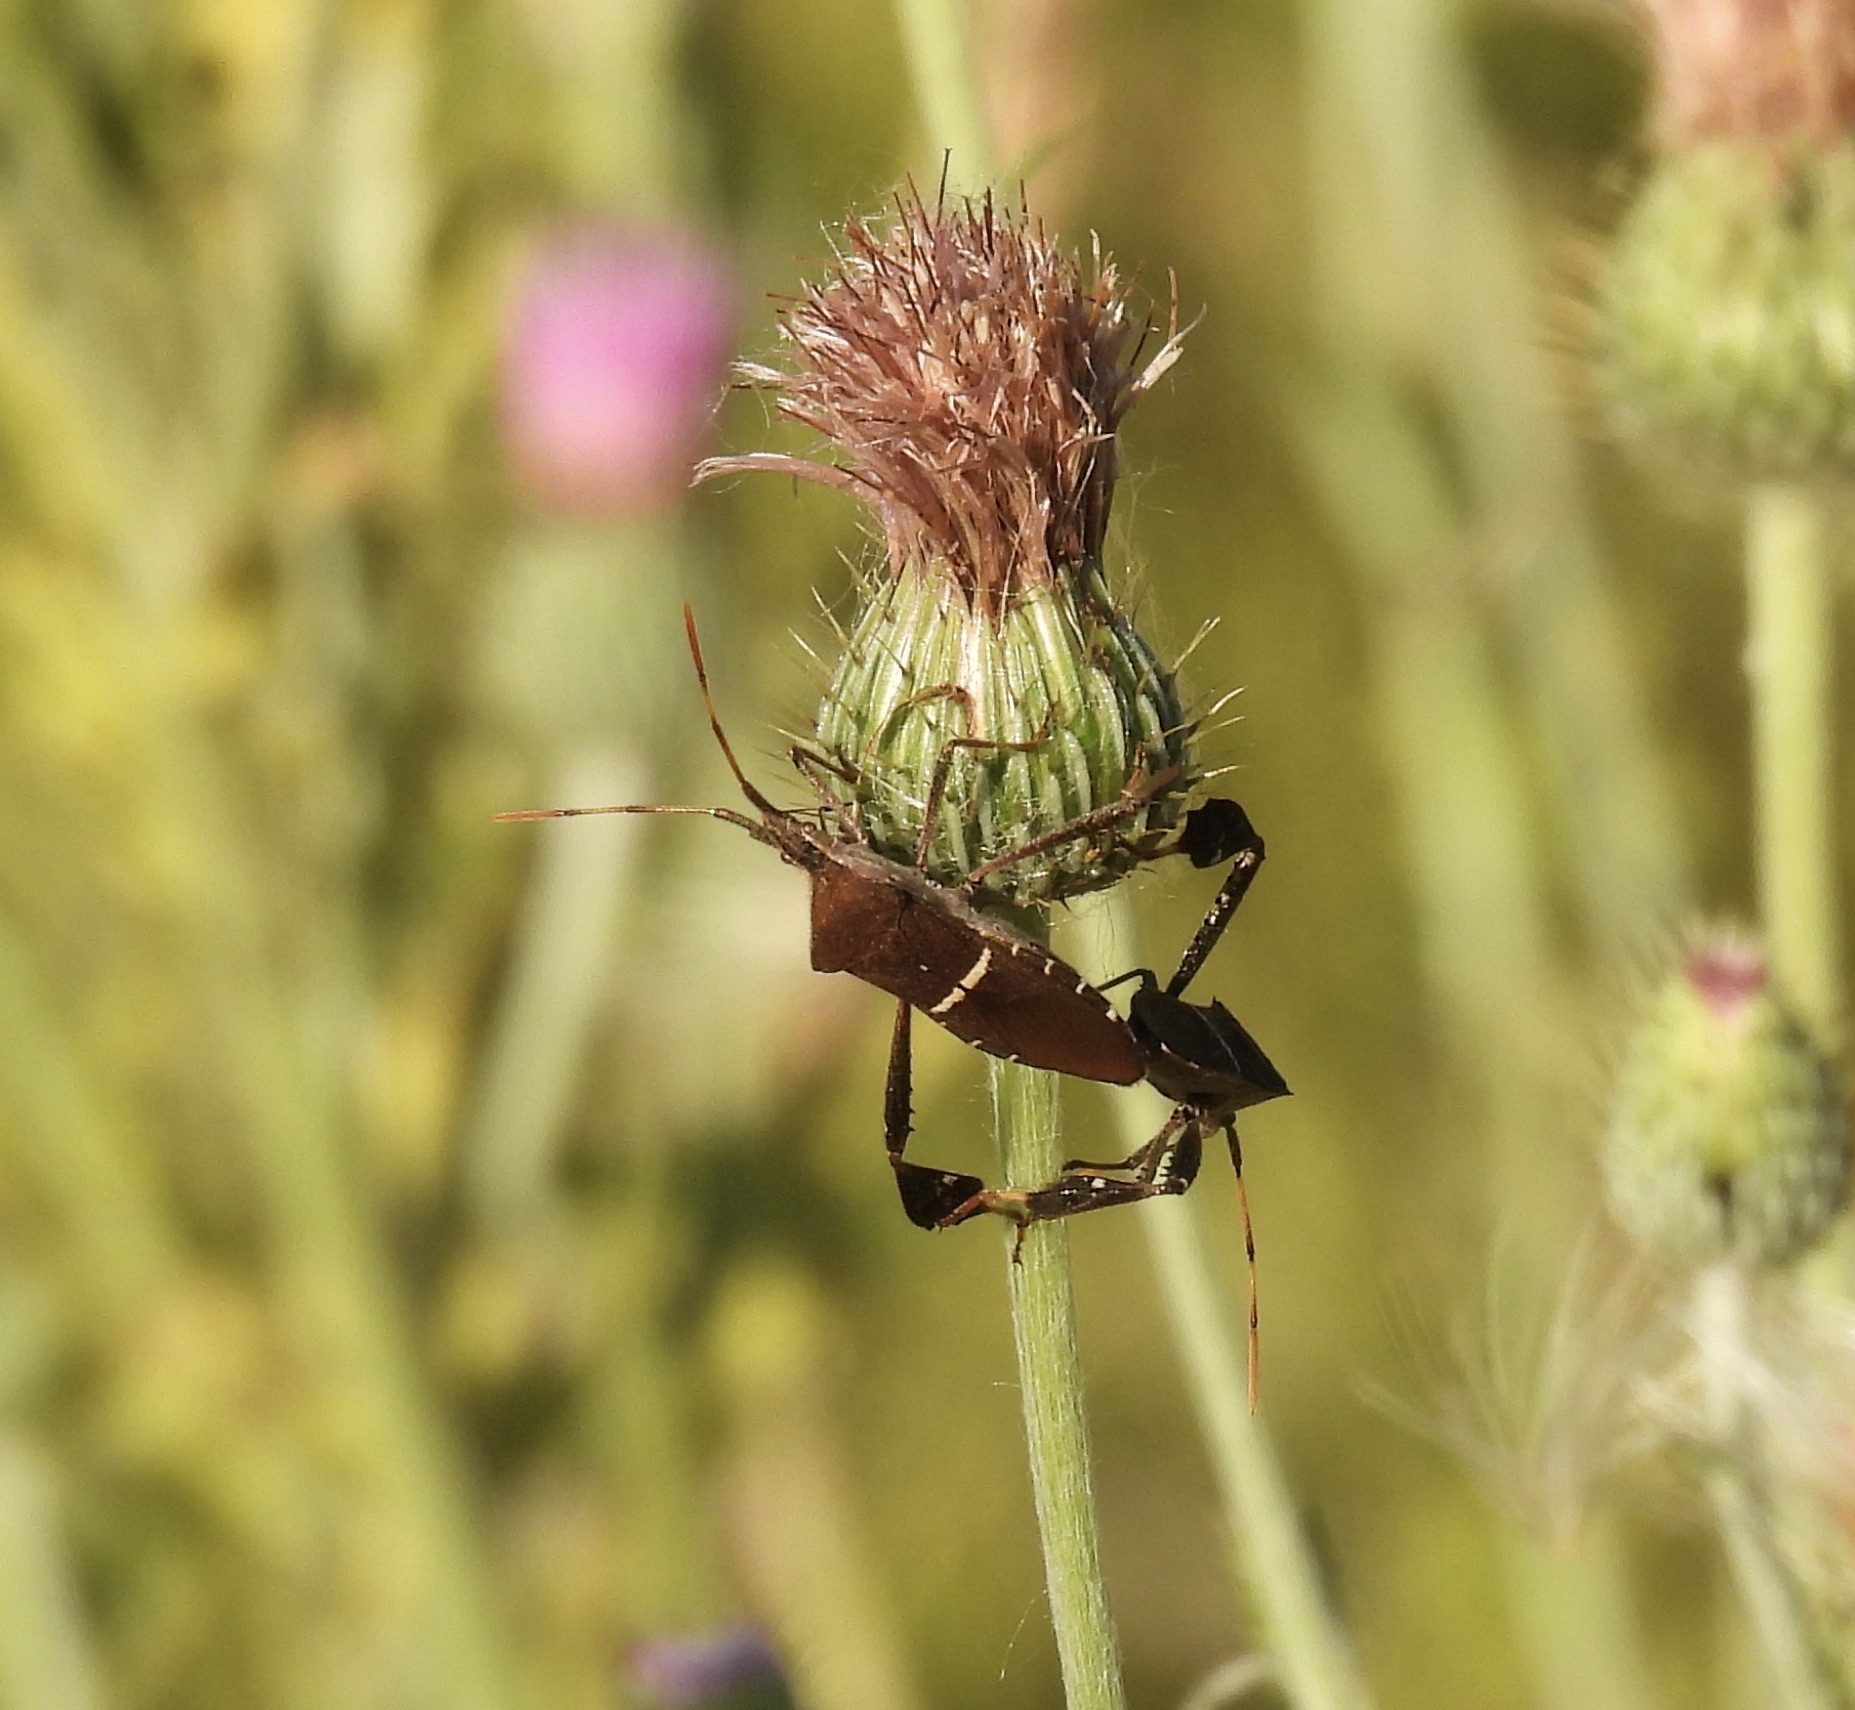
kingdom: Animalia
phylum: Arthropoda
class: Insecta
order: Hemiptera
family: Coreidae
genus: Leptoglossus
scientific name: Leptoglossus phyllopus
